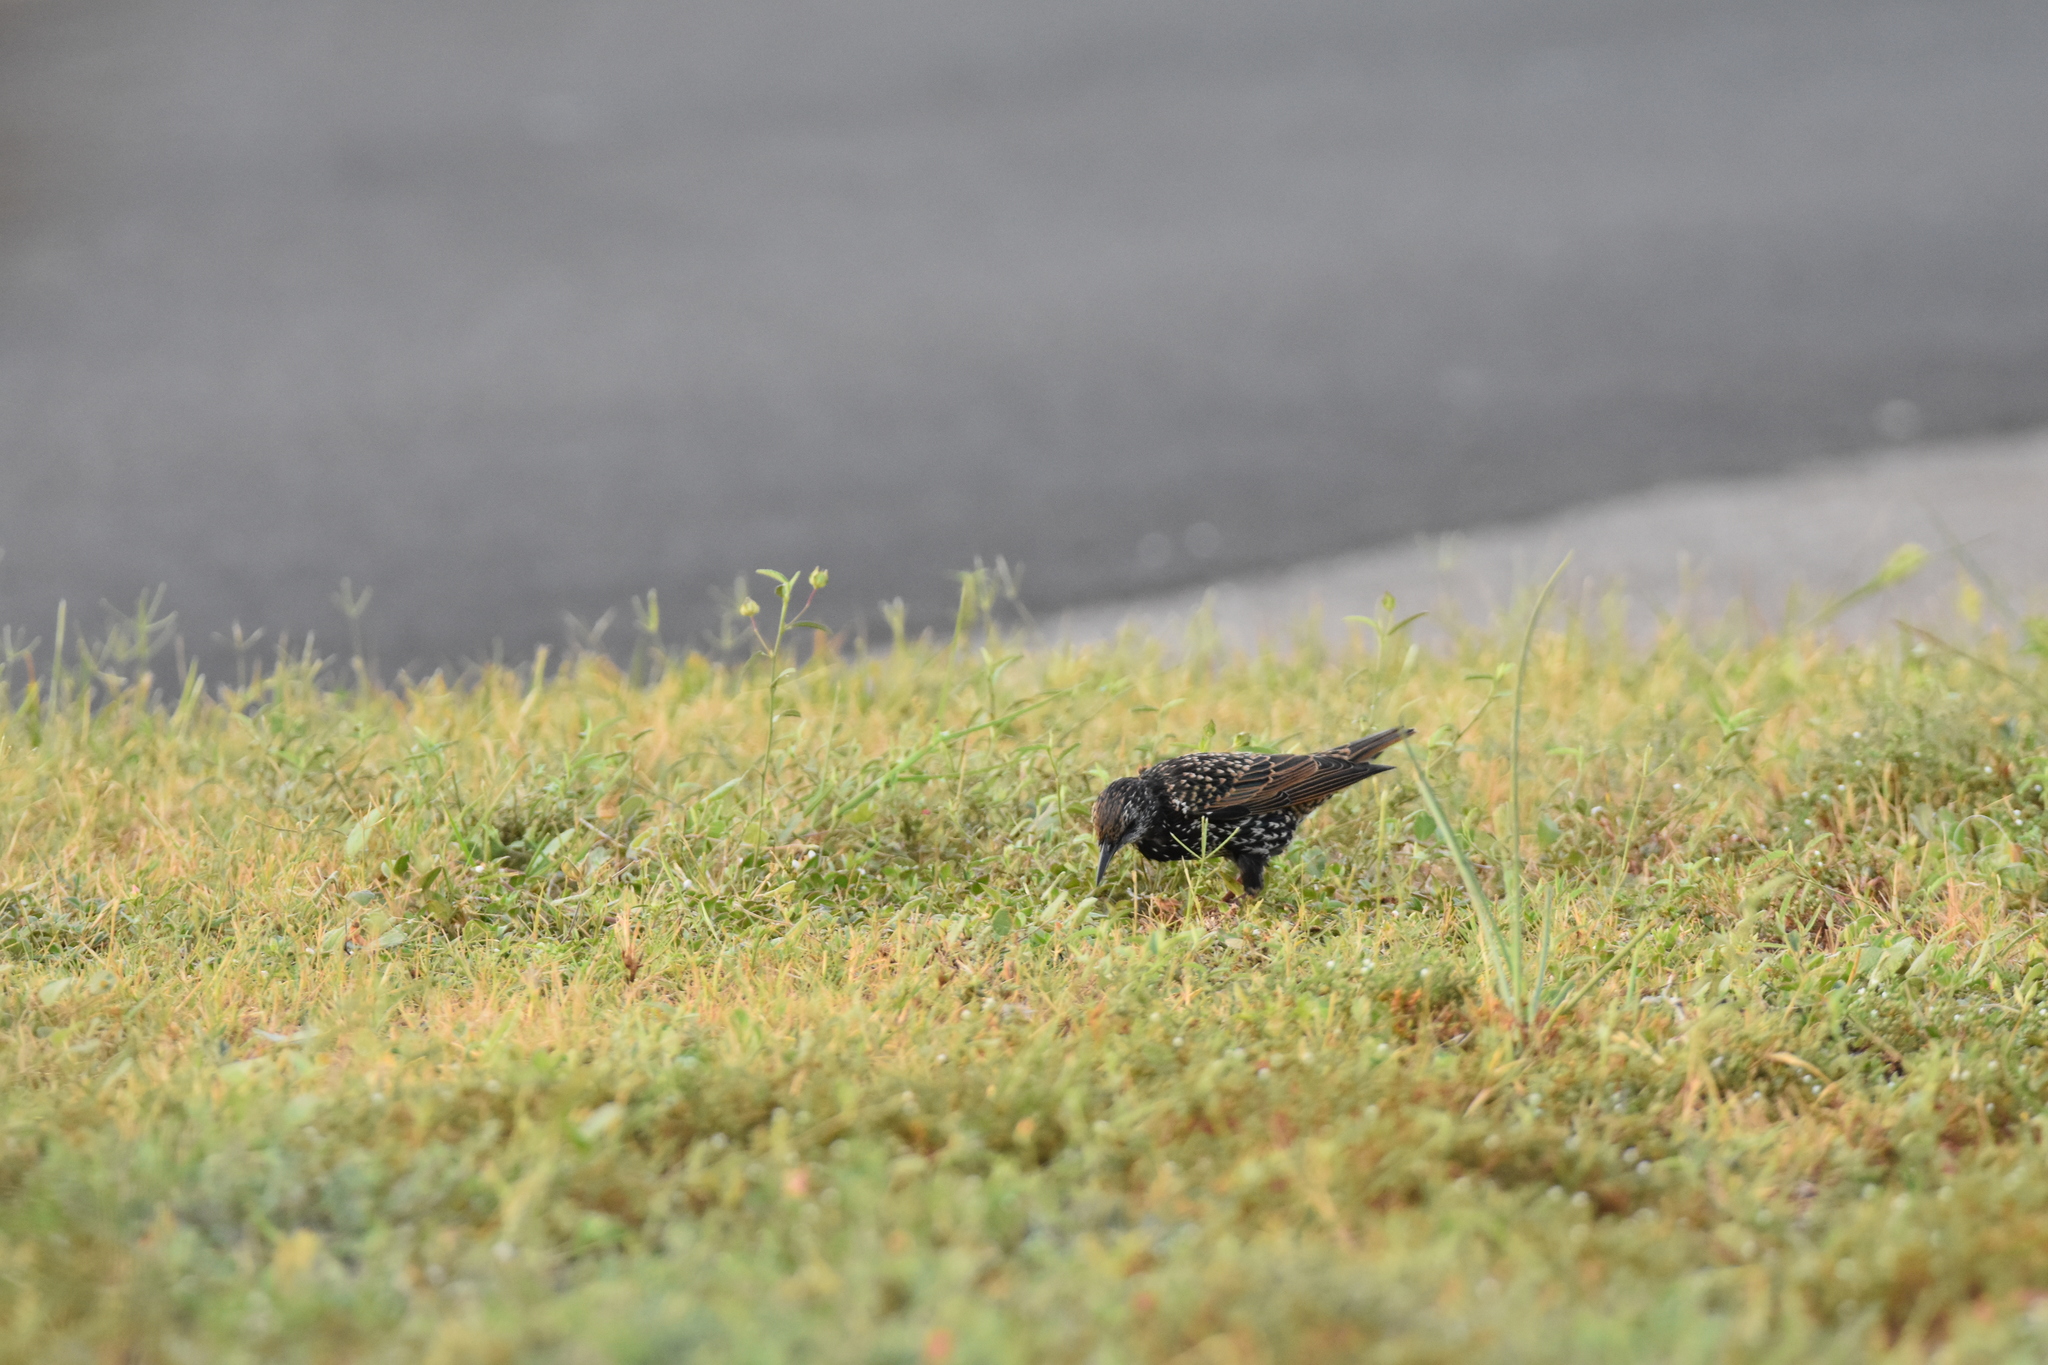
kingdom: Animalia
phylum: Chordata
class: Aves
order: Passeriformes
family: Sturnidae
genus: Sturnus
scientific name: Sturnus vulgaris
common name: Common starling
